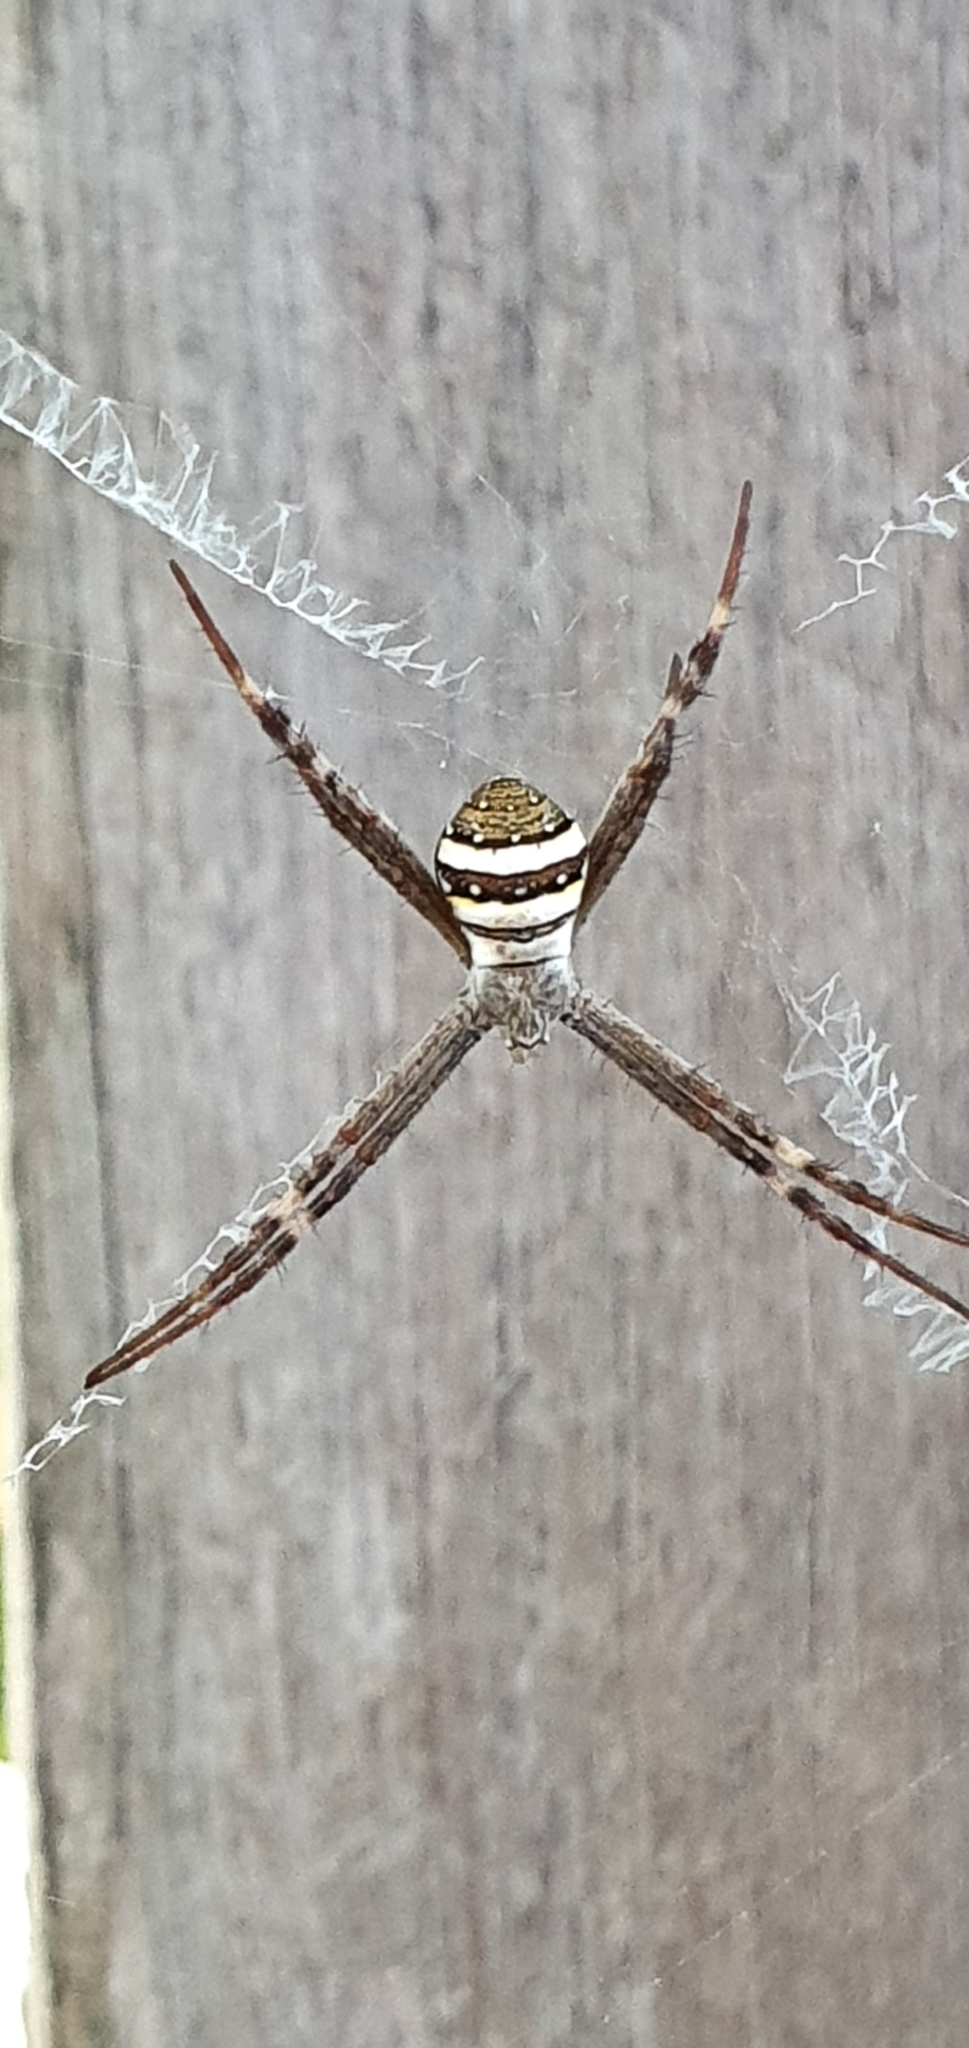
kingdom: Animalia
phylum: Arthropoda
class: Arachnida
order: Araneae
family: Araneidae
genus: Argiope
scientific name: Argiope keyserlingi
